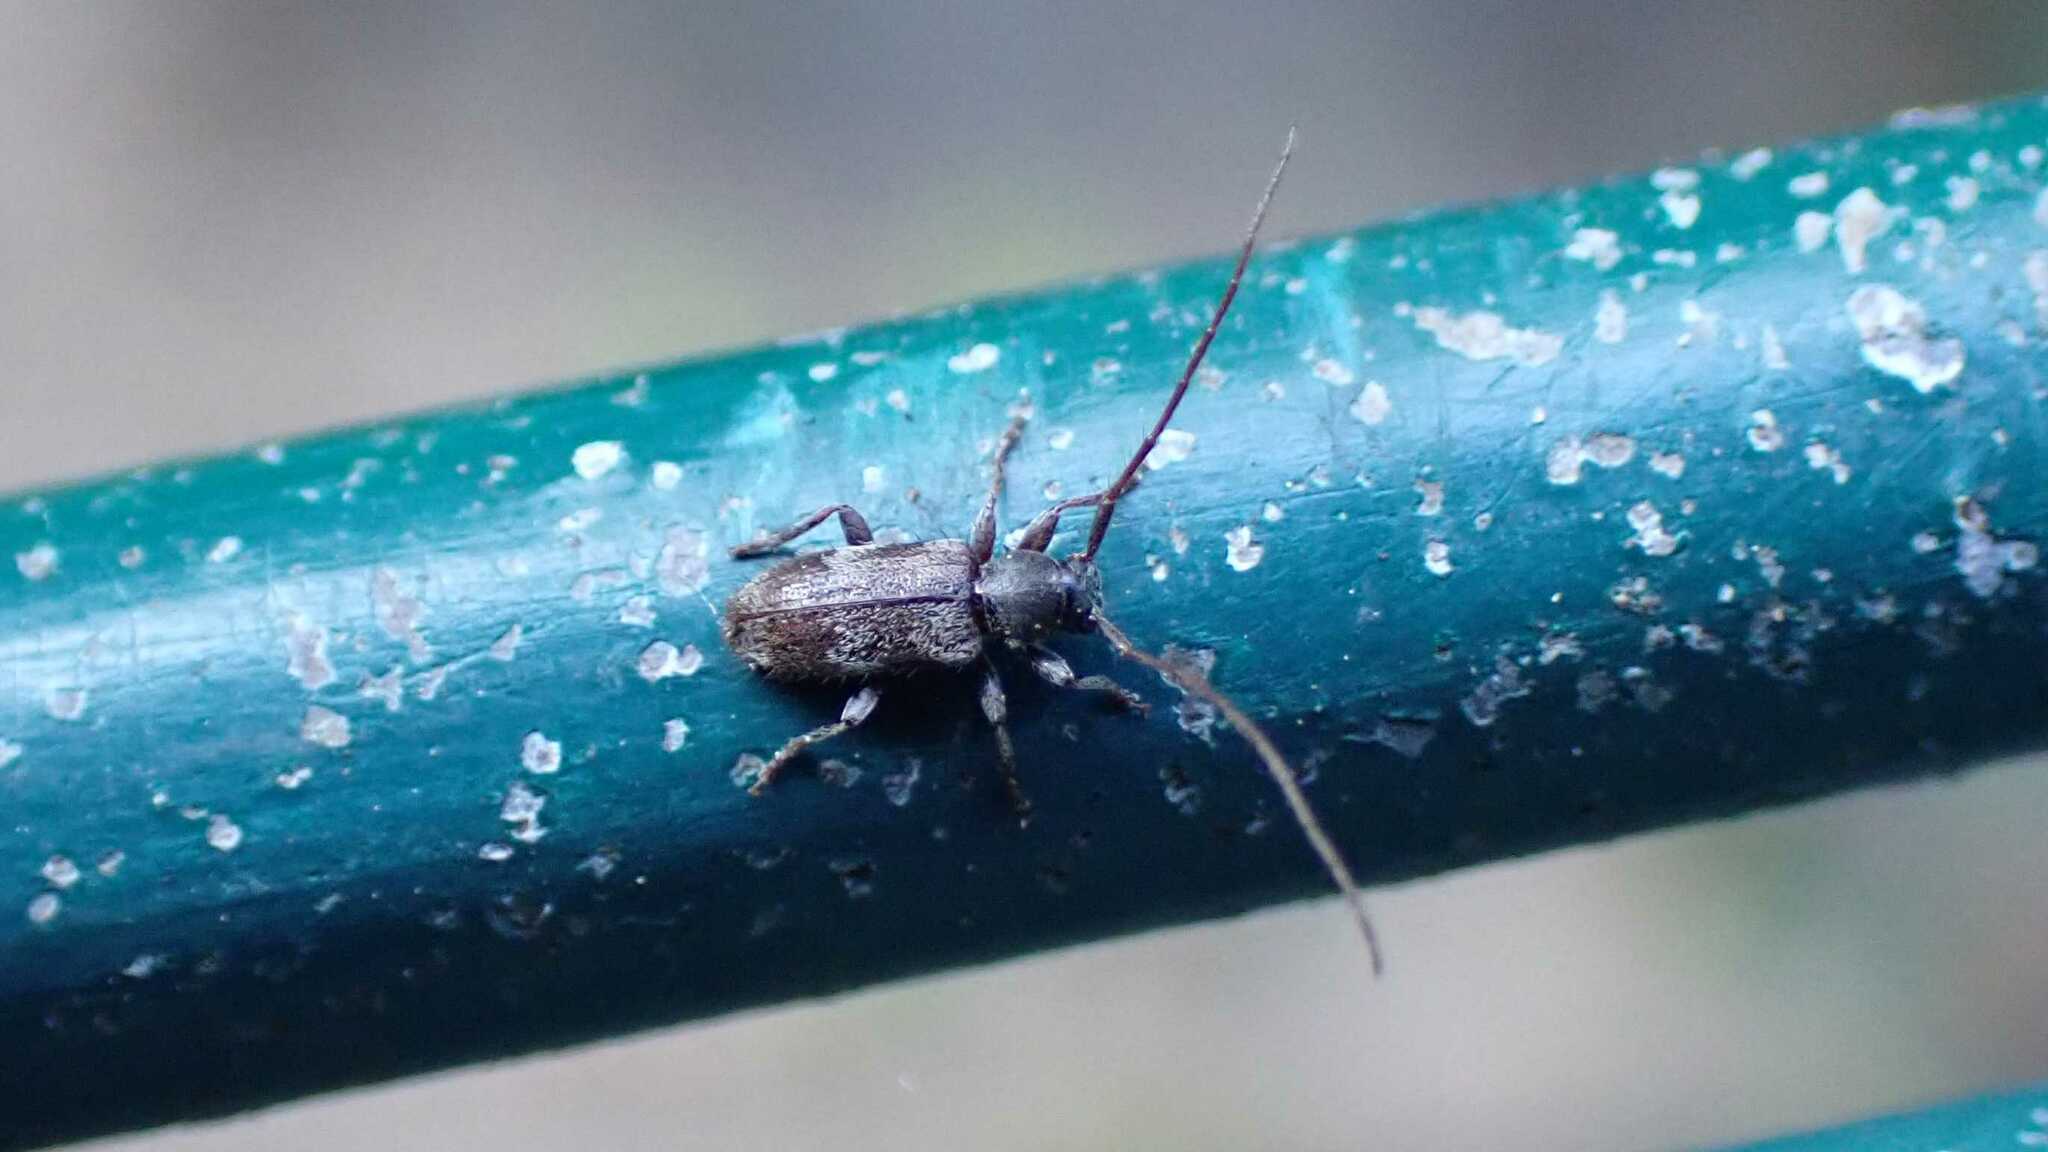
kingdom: Animalia
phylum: Arthropoda
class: Insecta
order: Coleoptera
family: Cerambycidae
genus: Exocentrus
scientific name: Exocentrus lusitanus
